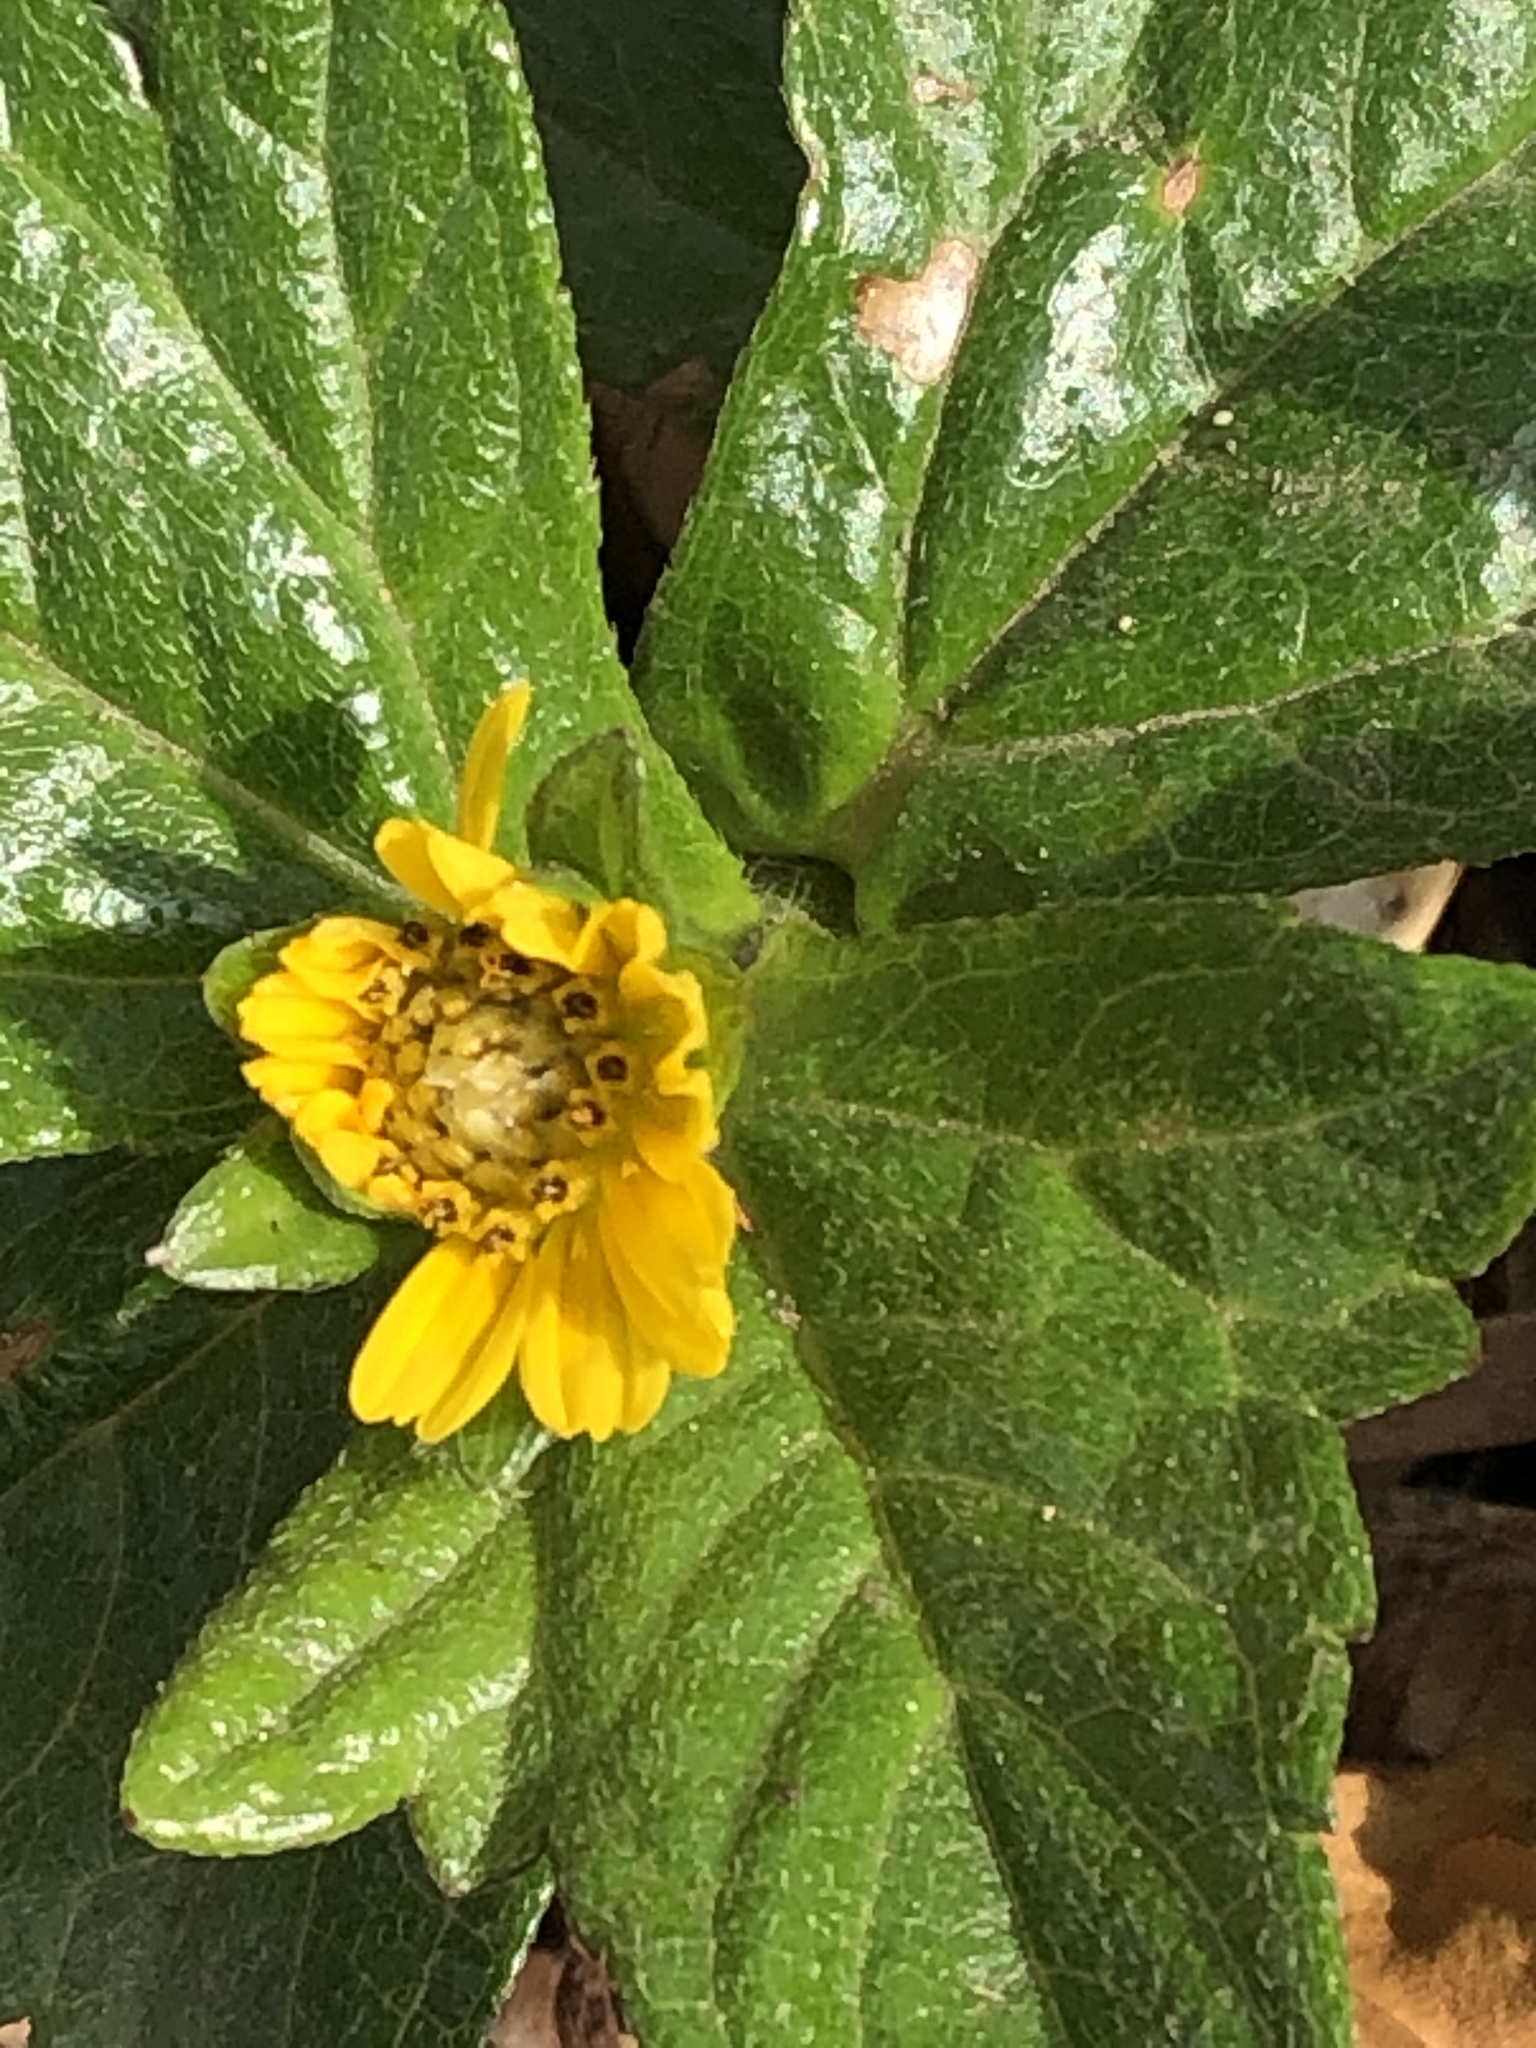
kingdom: Plantae
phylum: Tracheophyta
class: Magnoliopsida
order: Asterales
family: Asteraceae
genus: Sphagneticola
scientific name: Sphagneticola trilobata
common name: Bay biscayne creeping-oxeye
